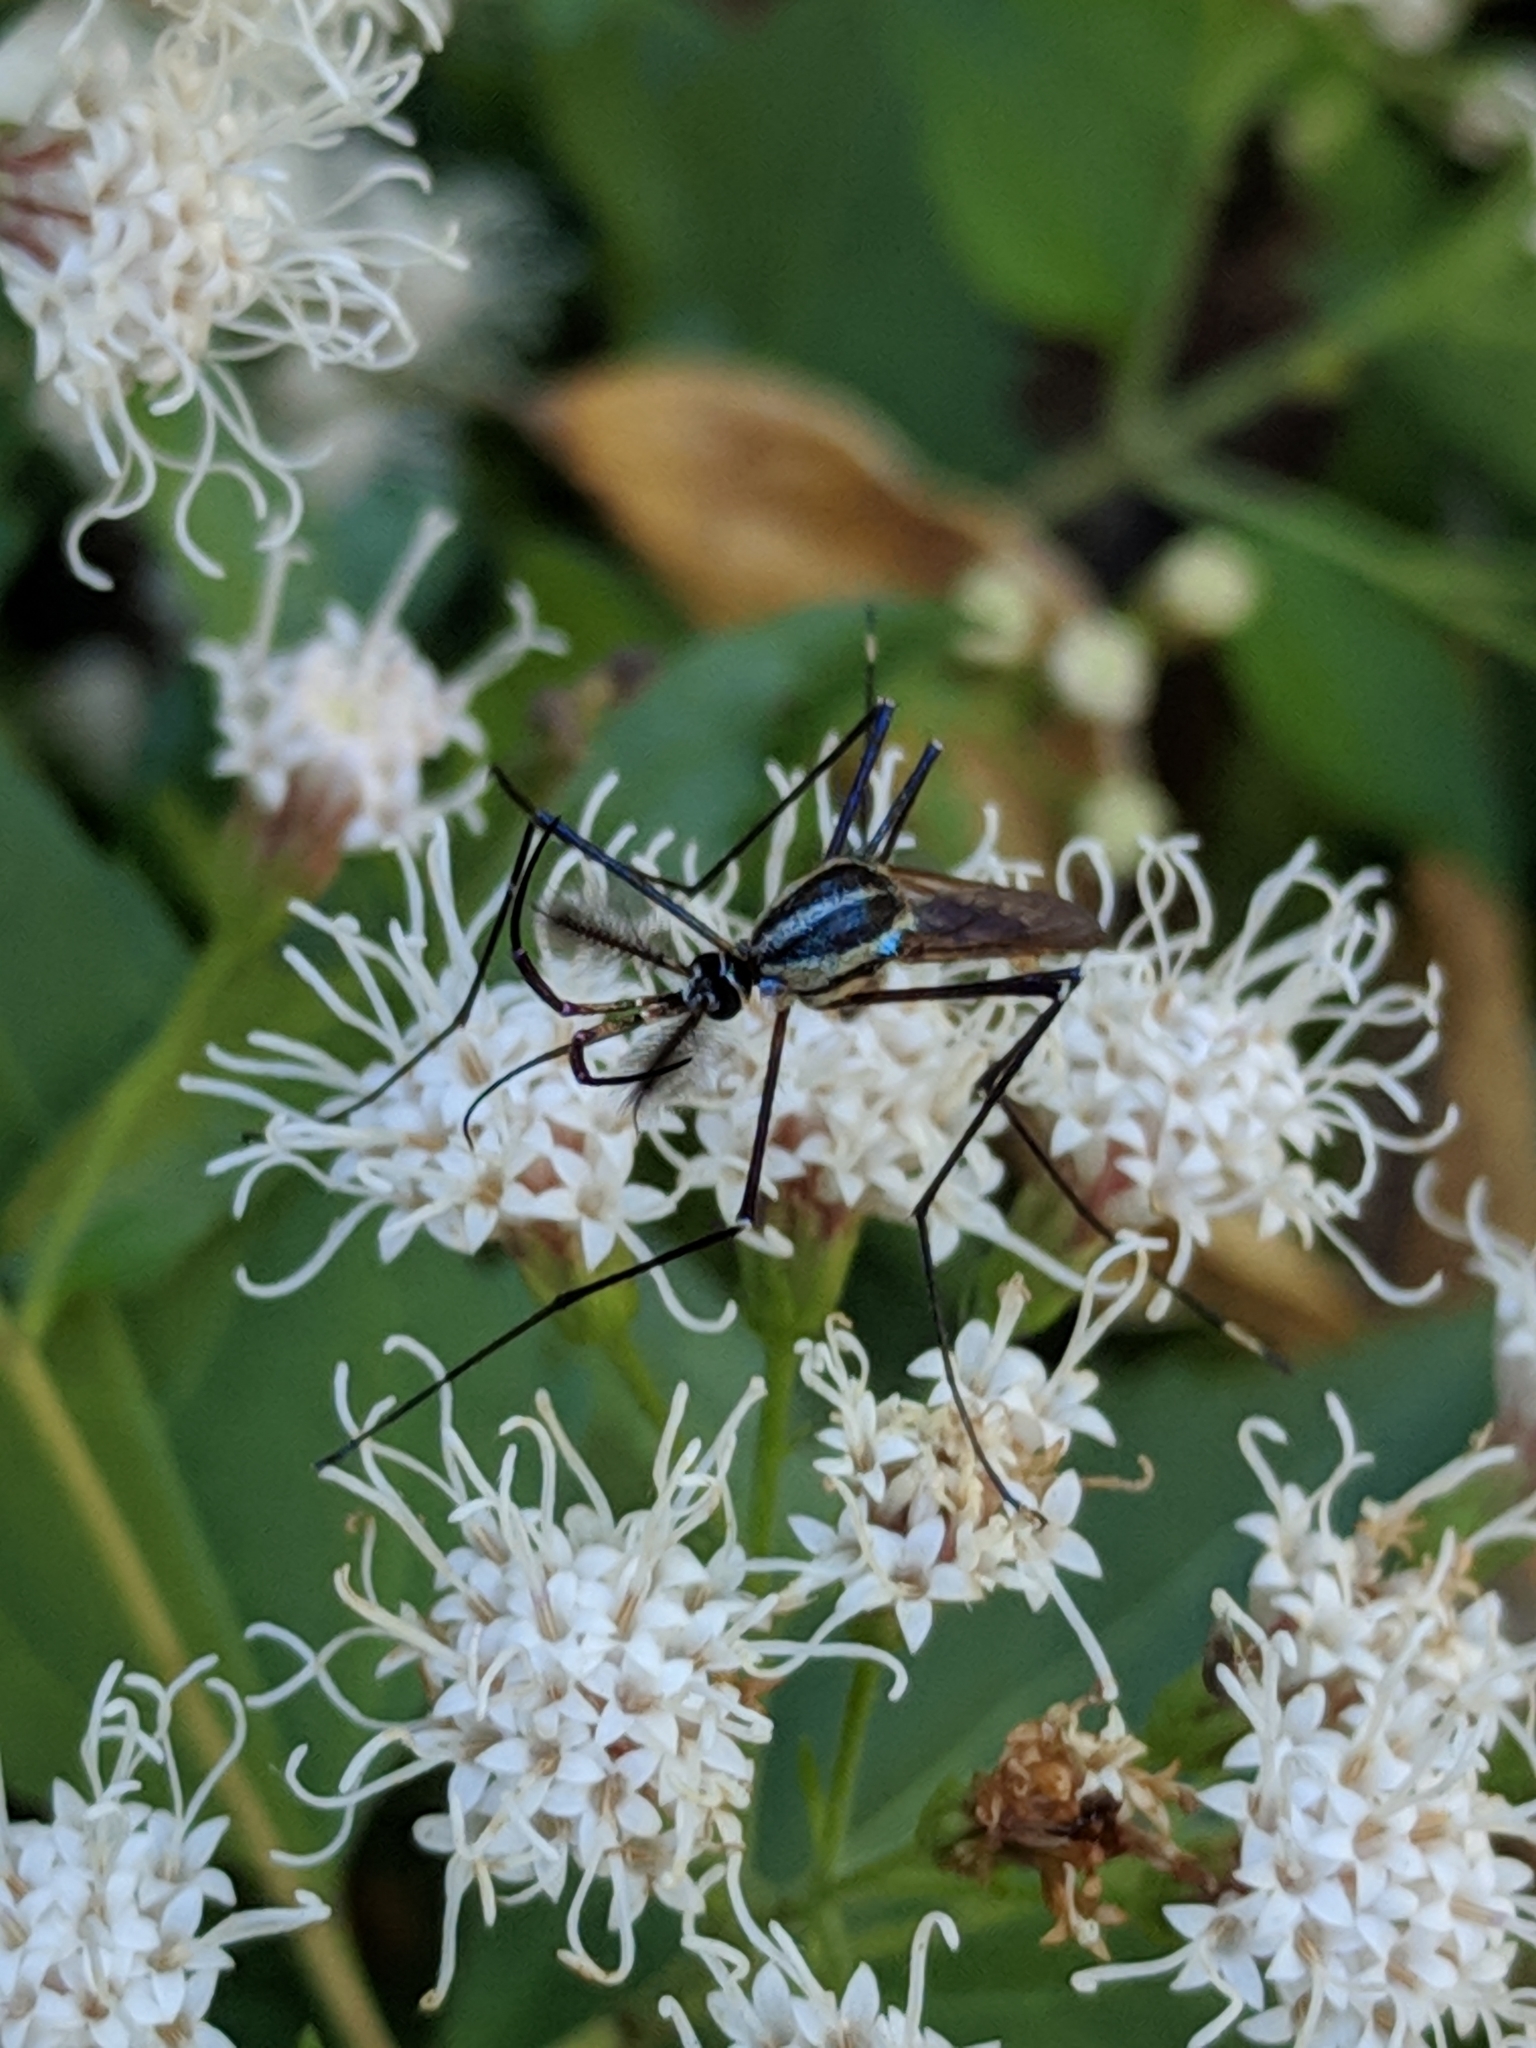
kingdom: Animalia
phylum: Arthropoda
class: Insecta
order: Diptera
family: Culicidae
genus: Toxorhynchites
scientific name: Toxorhynchites rutilus
